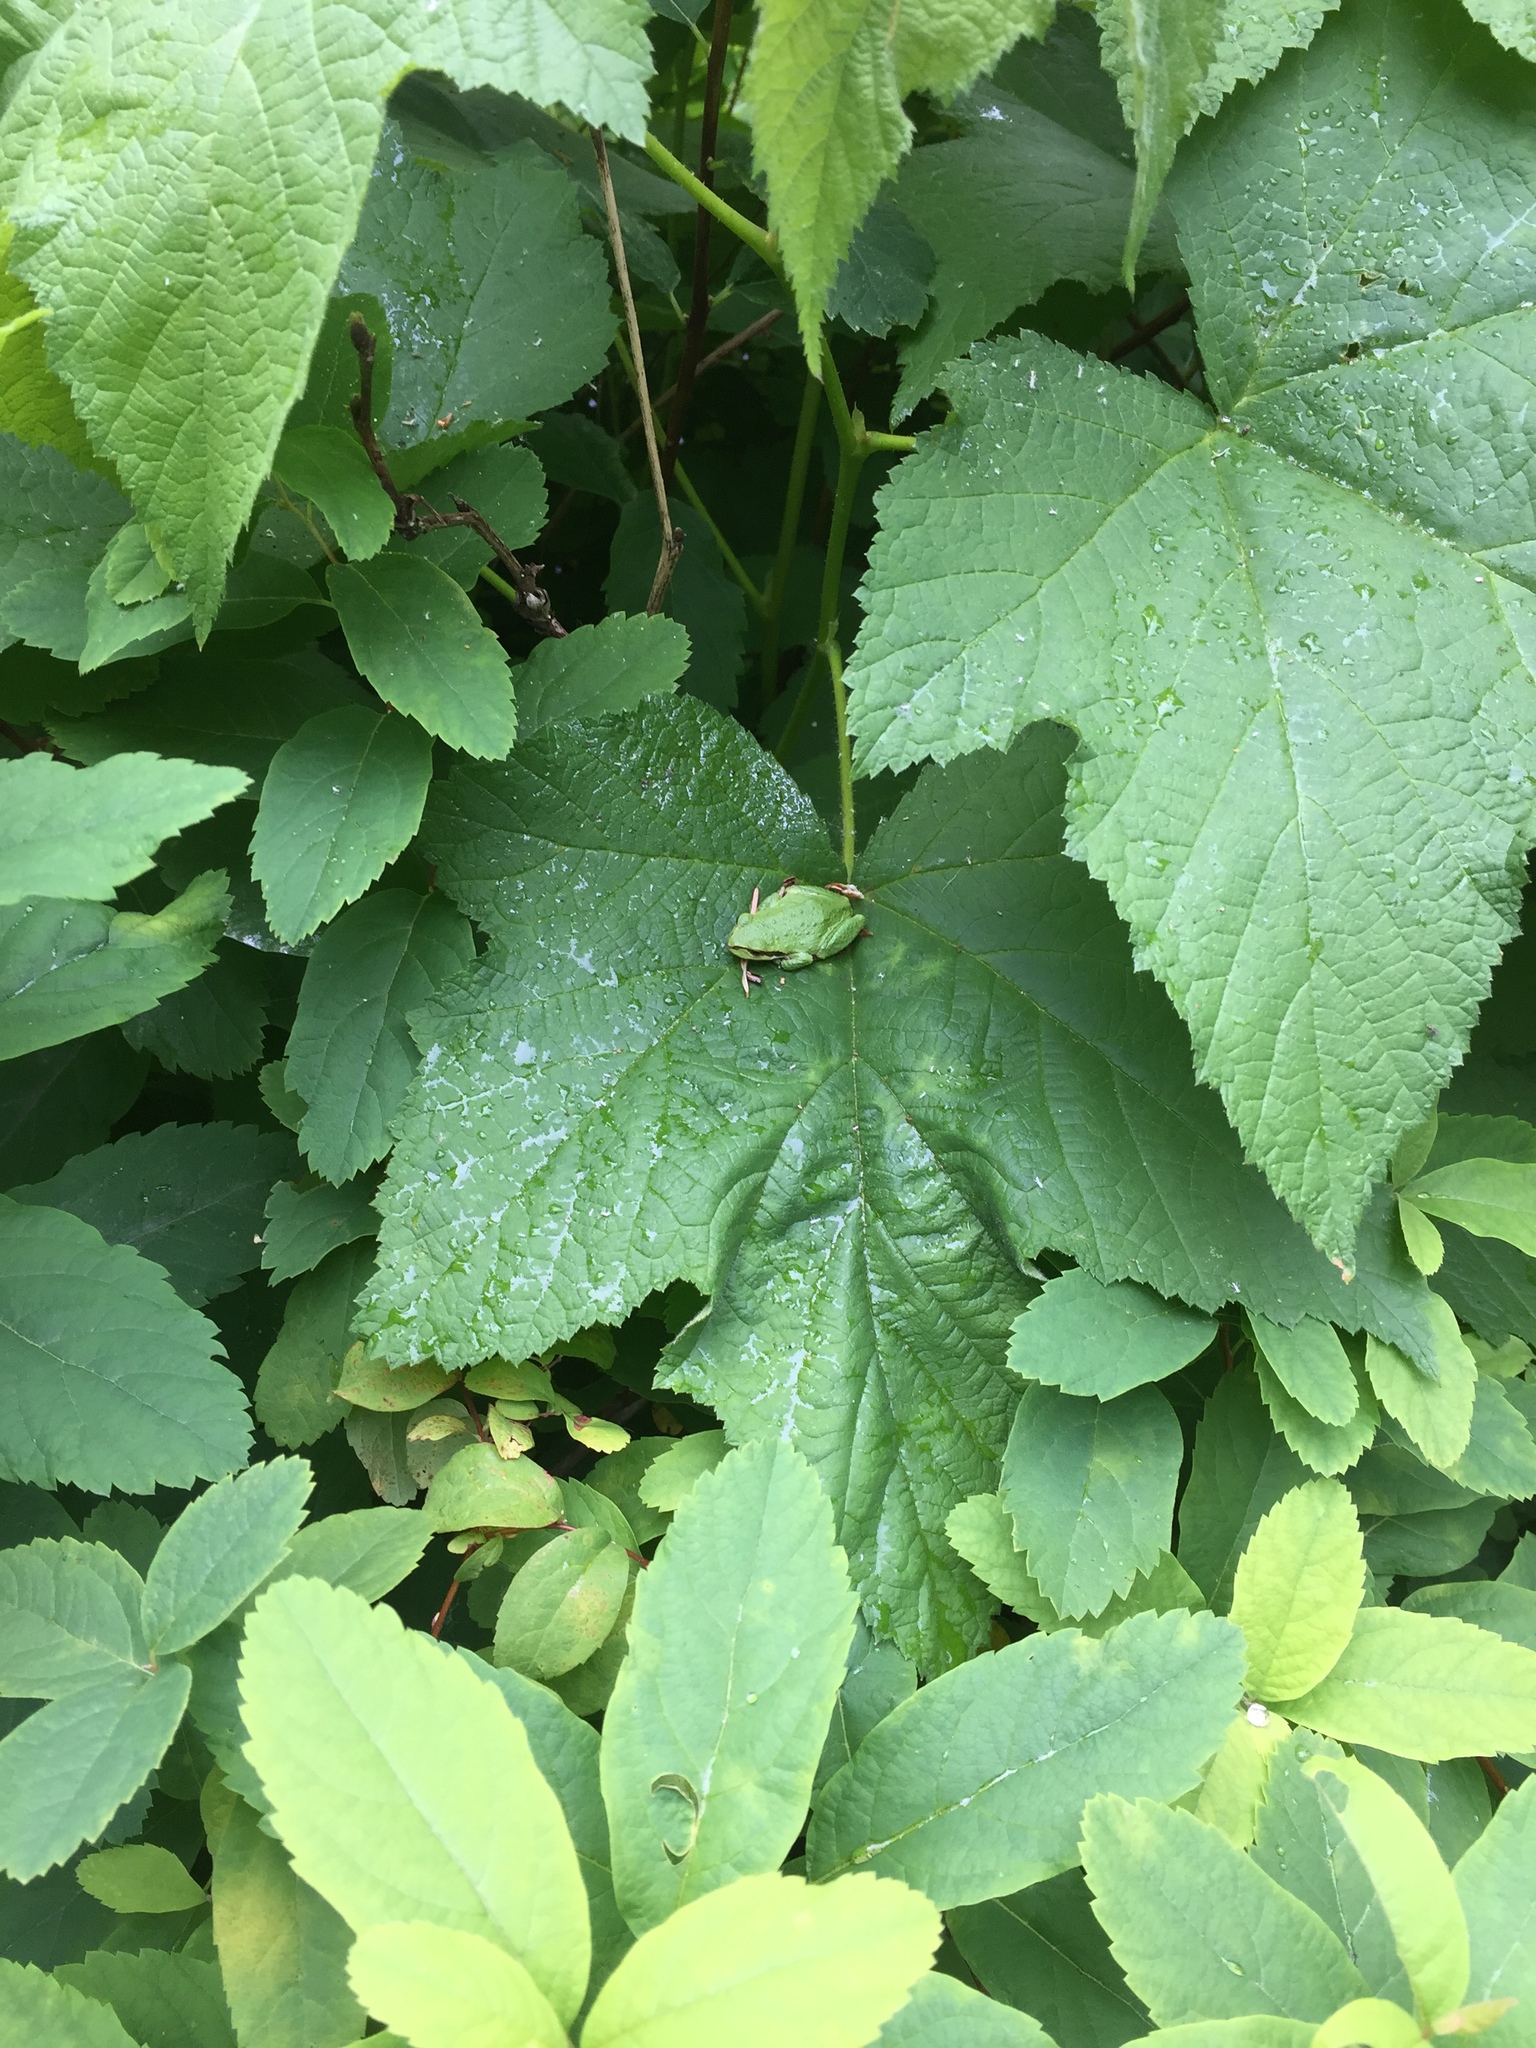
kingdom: Animalia
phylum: Chordata
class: Amphibia
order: Anura
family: Hylidae
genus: Pseudacris
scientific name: Pseudacris regilla
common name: Pacific chorus frog
